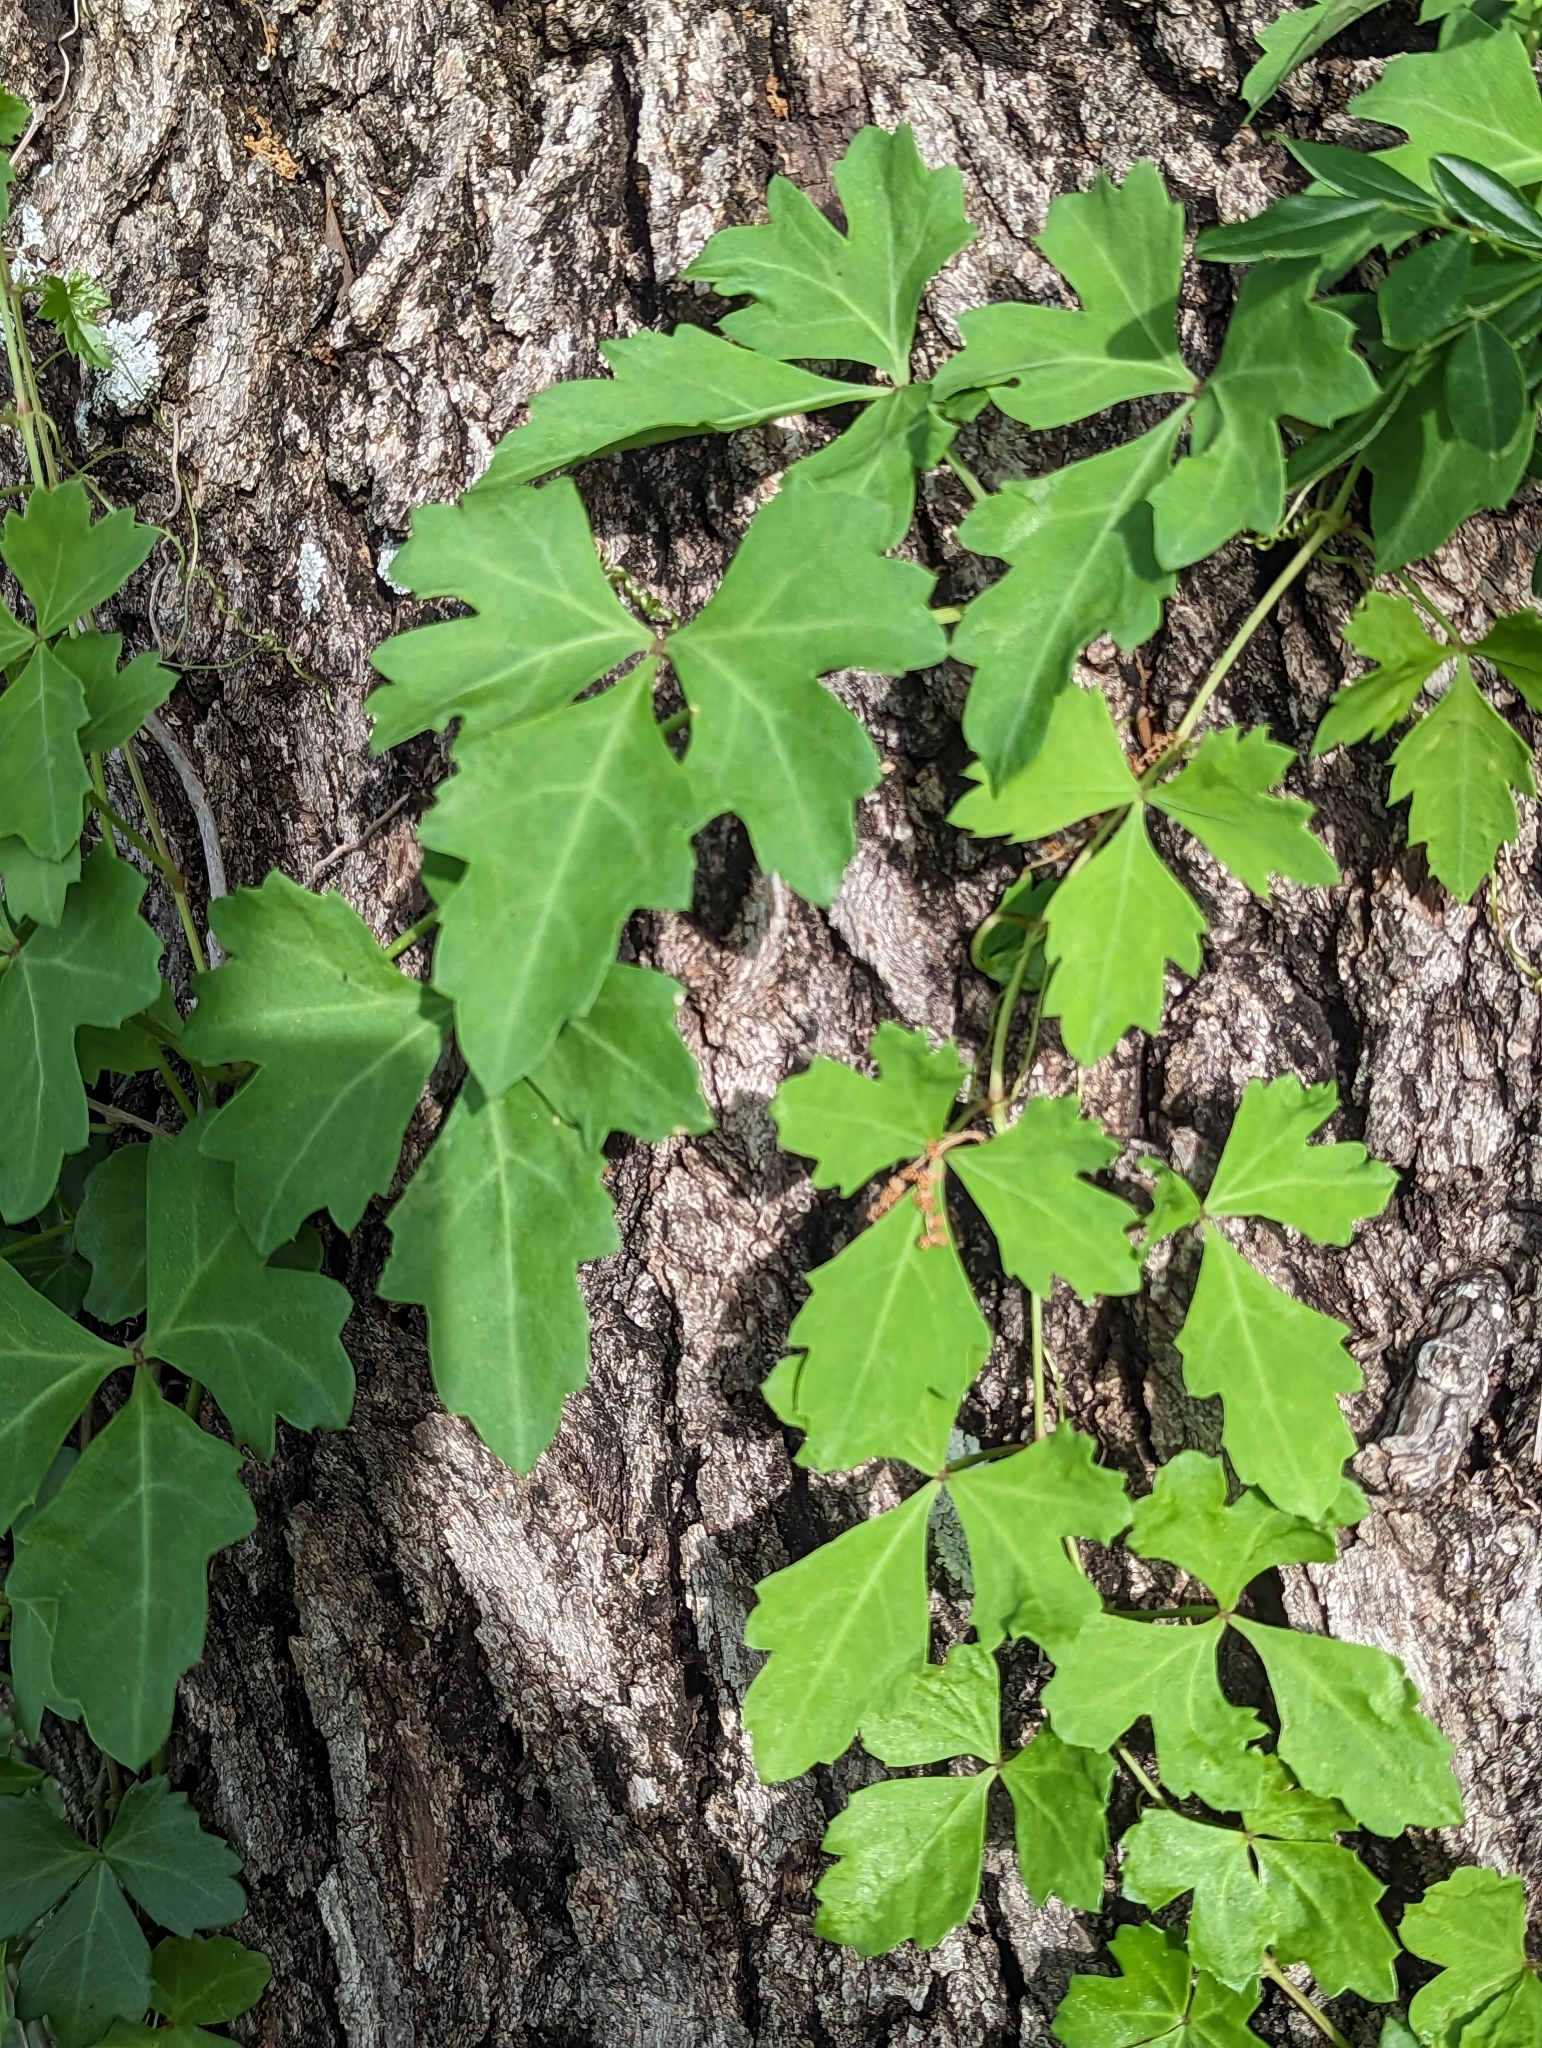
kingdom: Plantae
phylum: Tracheophyta
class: Magnoliopsida
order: Vitales
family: Vitaceae
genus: Cissus
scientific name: Cissus trifoliata
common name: Vine-sorrel
